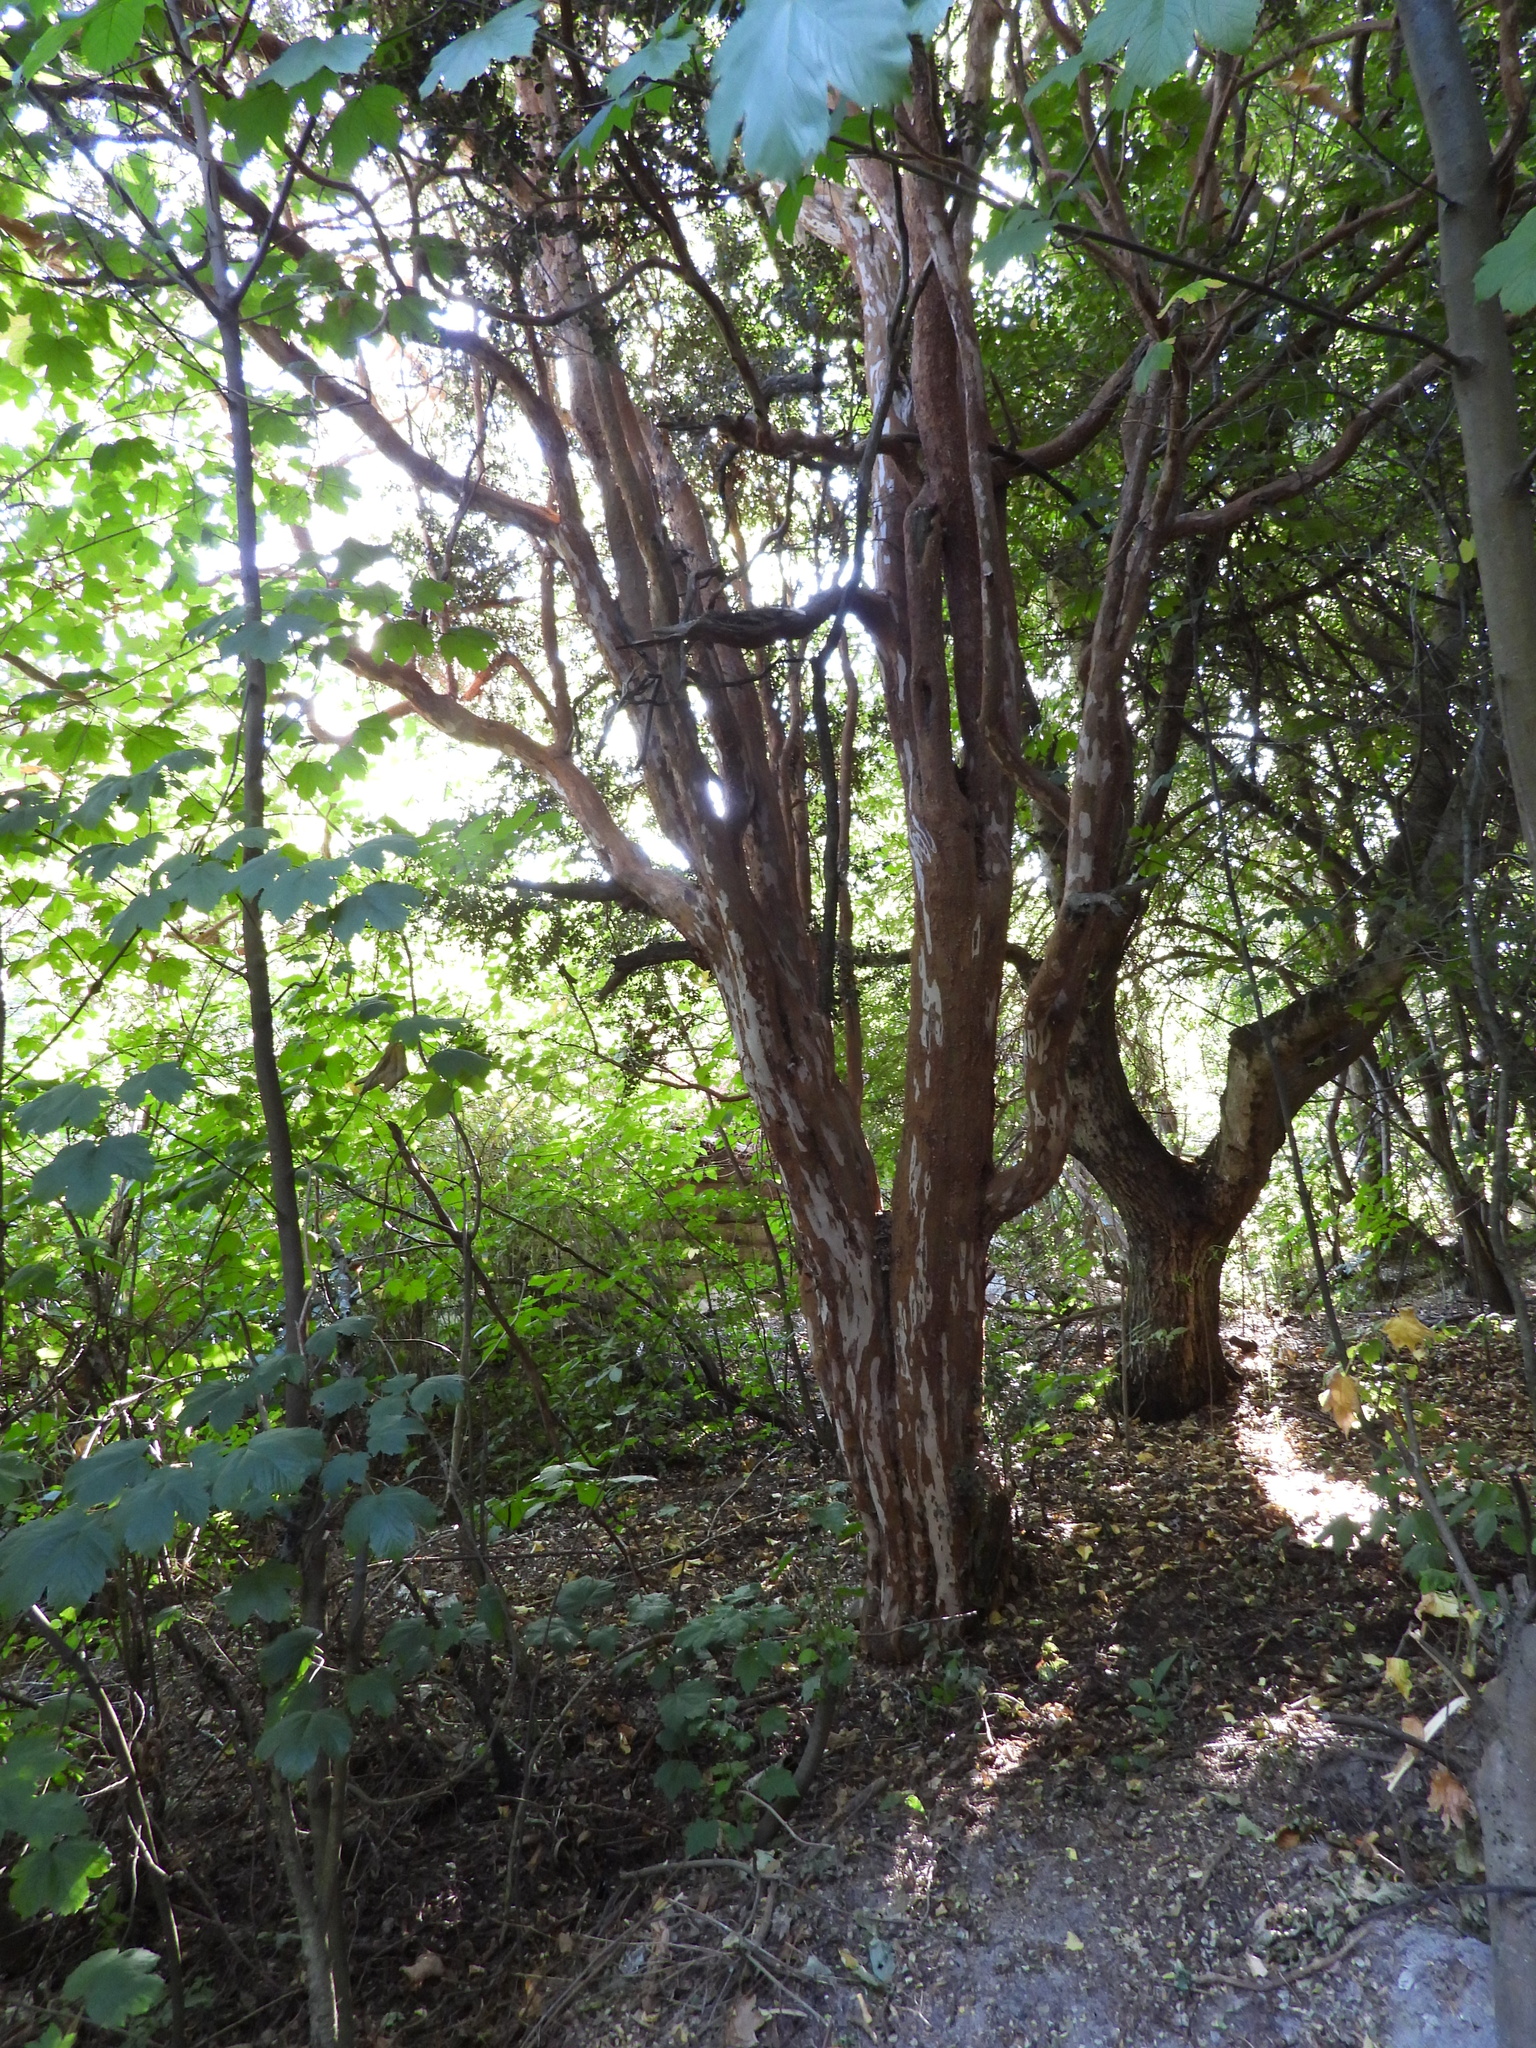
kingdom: Plantae
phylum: Tracheophyta
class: Magnoliopsida
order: Myrtales
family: Myrtaceae
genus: Luma
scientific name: Luma apiculata
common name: Chilean myrtle
